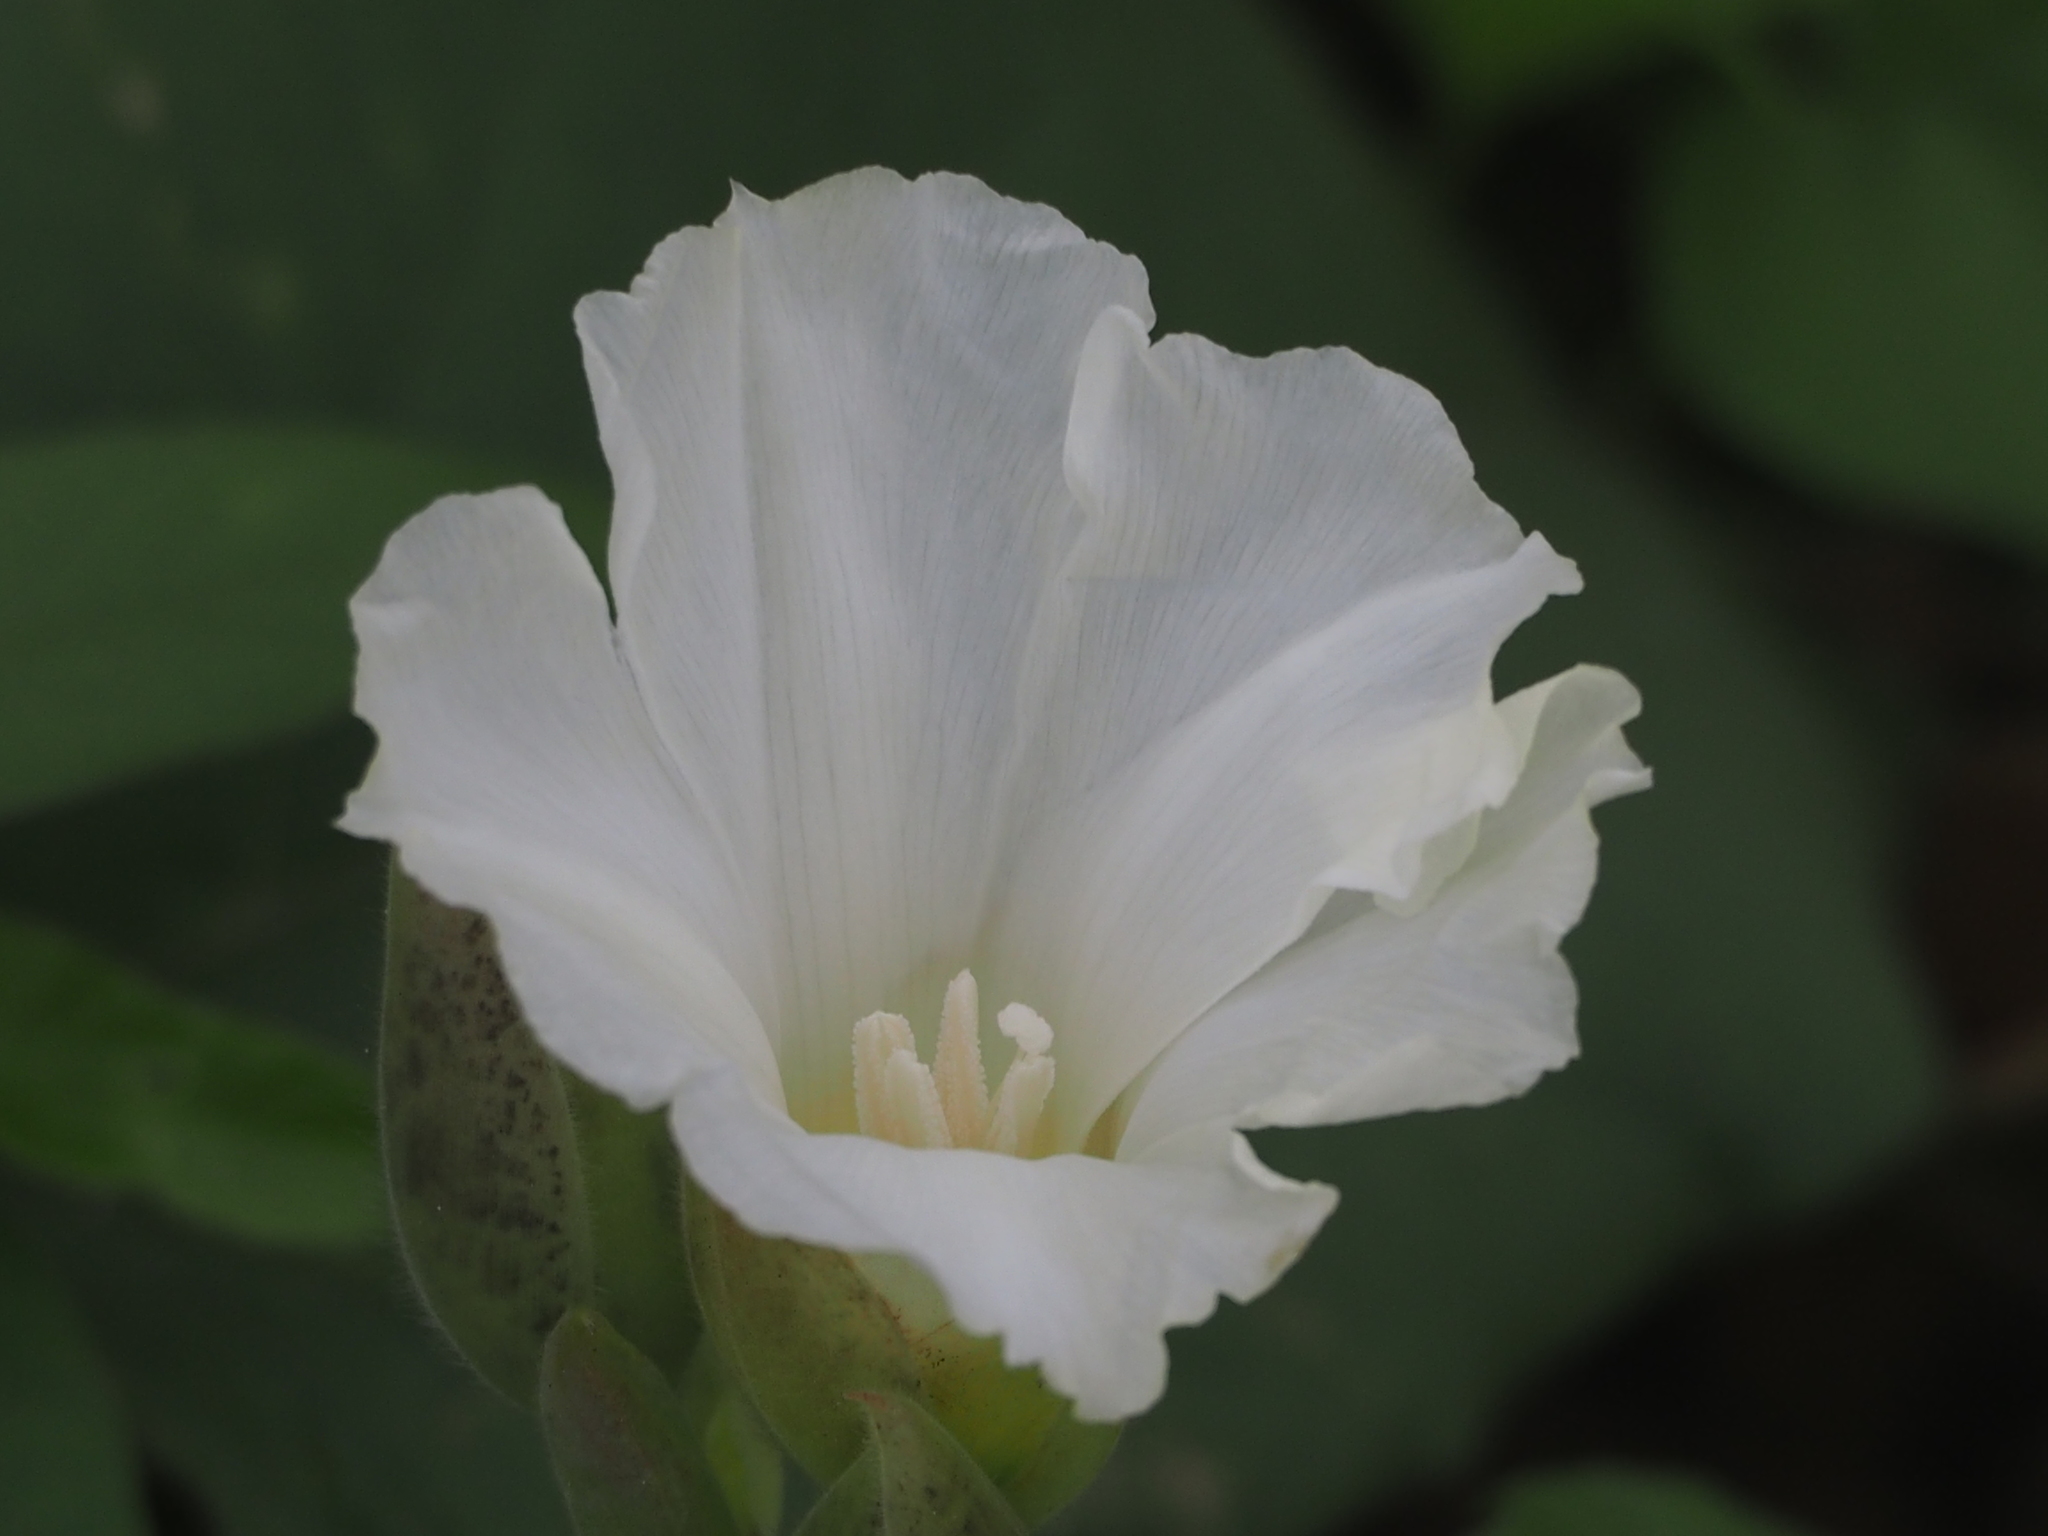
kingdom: Plantae
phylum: Tracheophyta
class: Magnoliopsida
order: Solanales
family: Convolvulaceae
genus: Operculina
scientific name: Operculina turpethum
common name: Transparent wood-rose
